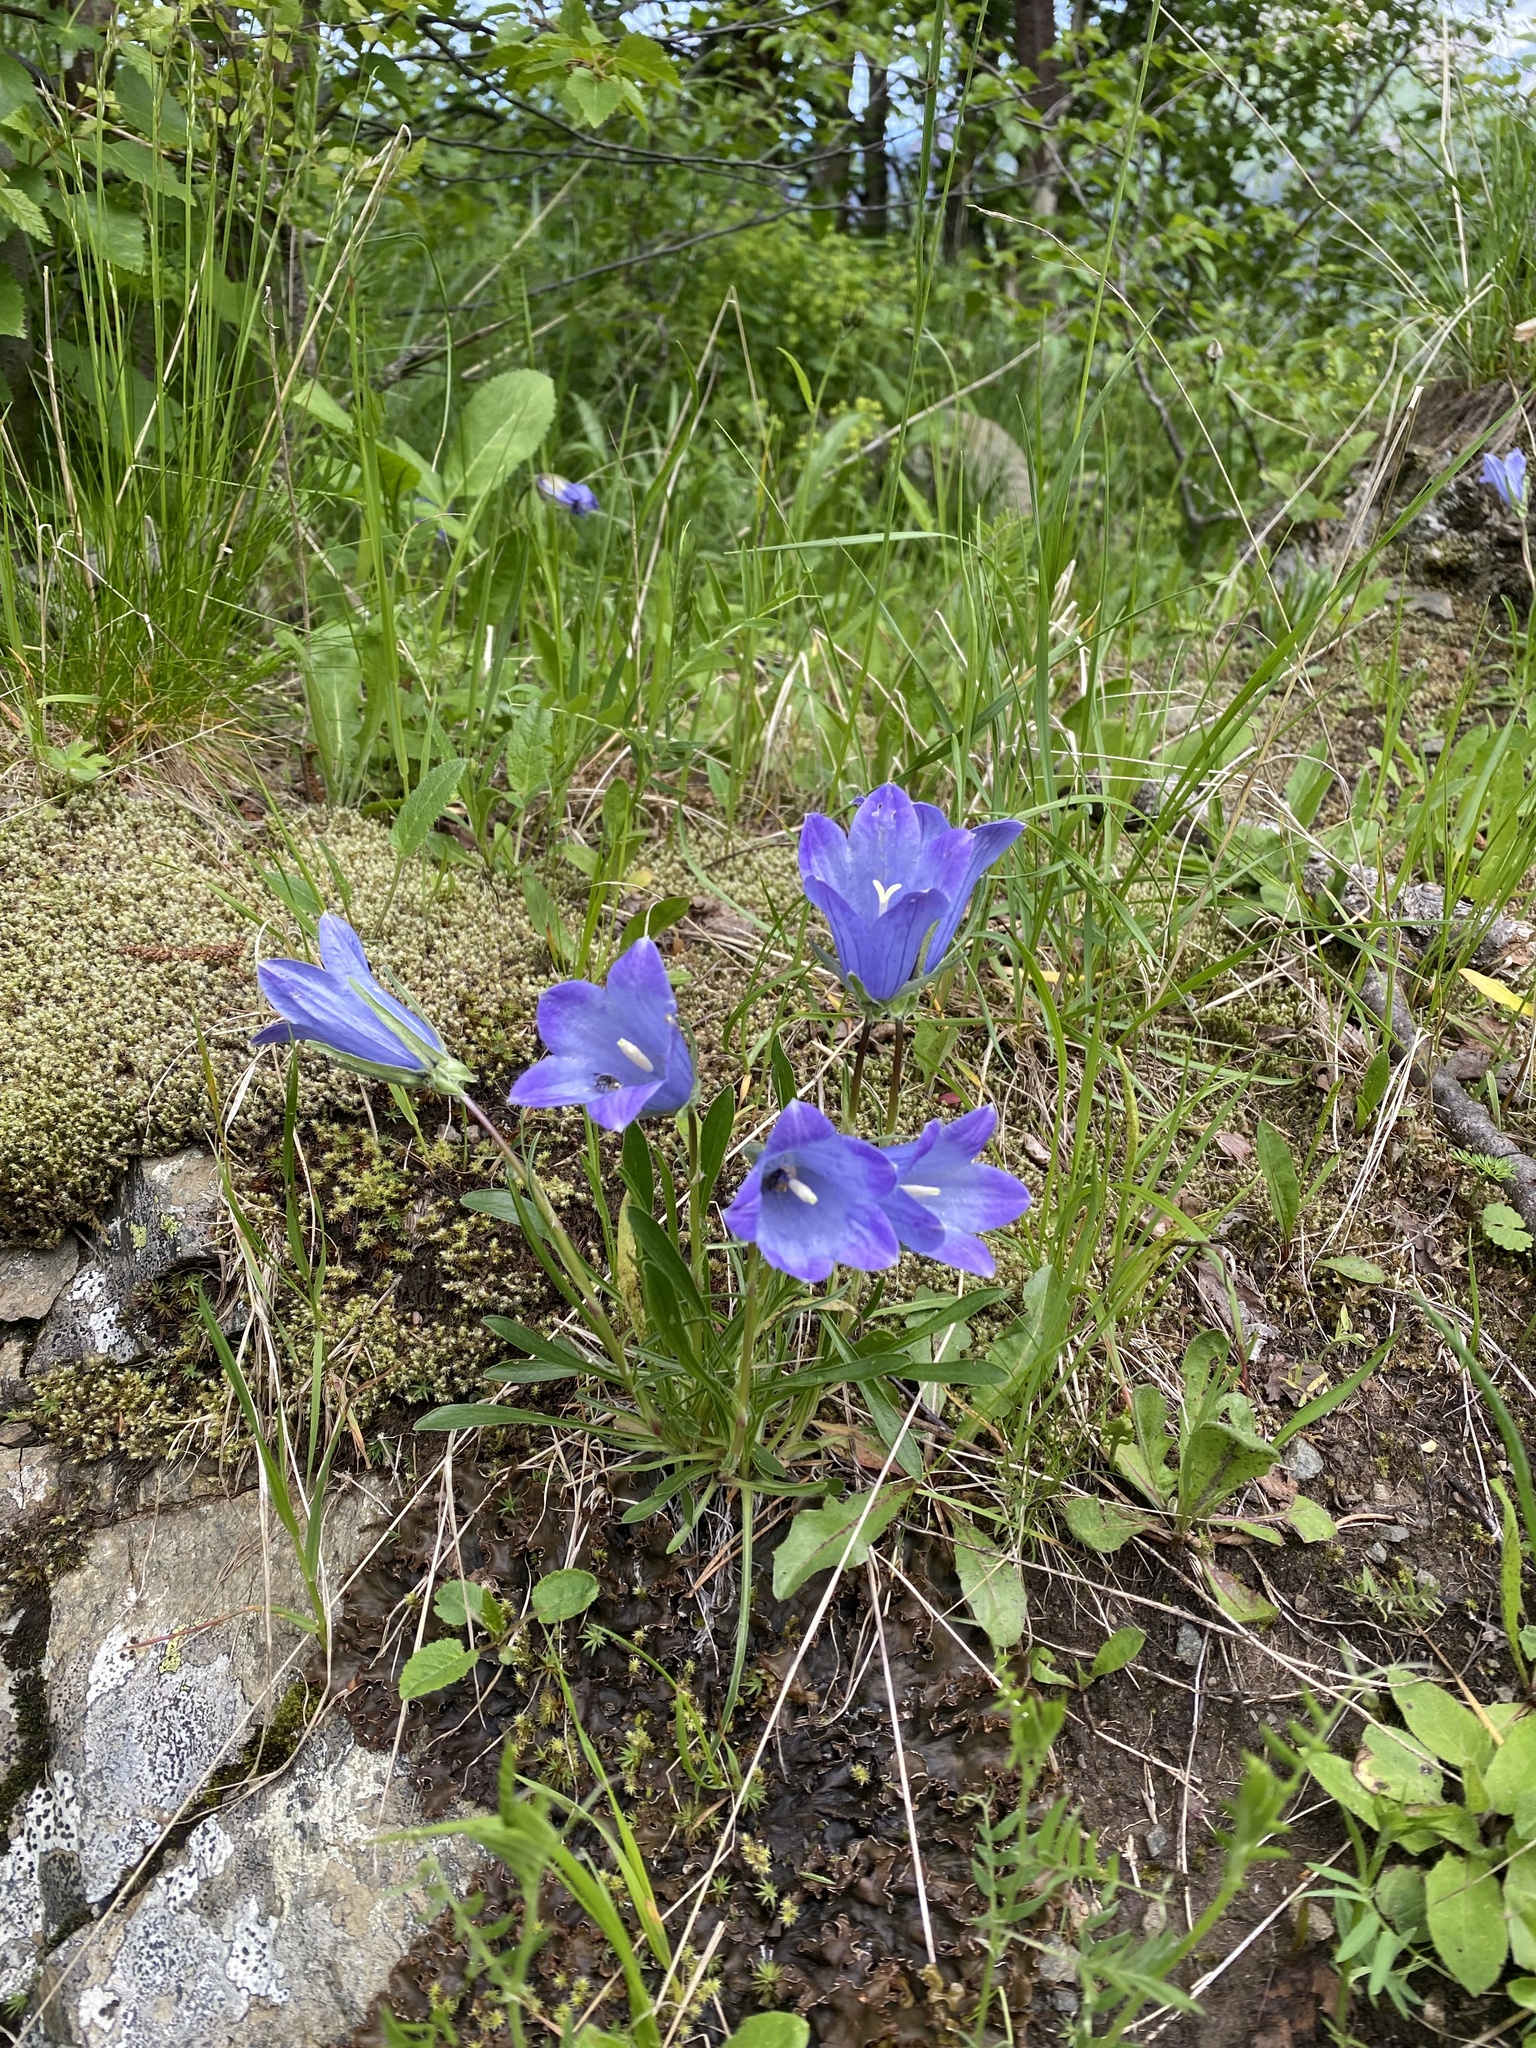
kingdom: Plantae
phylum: Tracheophyta
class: Magnoliopsida
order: Asterales
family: Campanulaceae
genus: Campanula
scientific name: Campanula saxifraga
